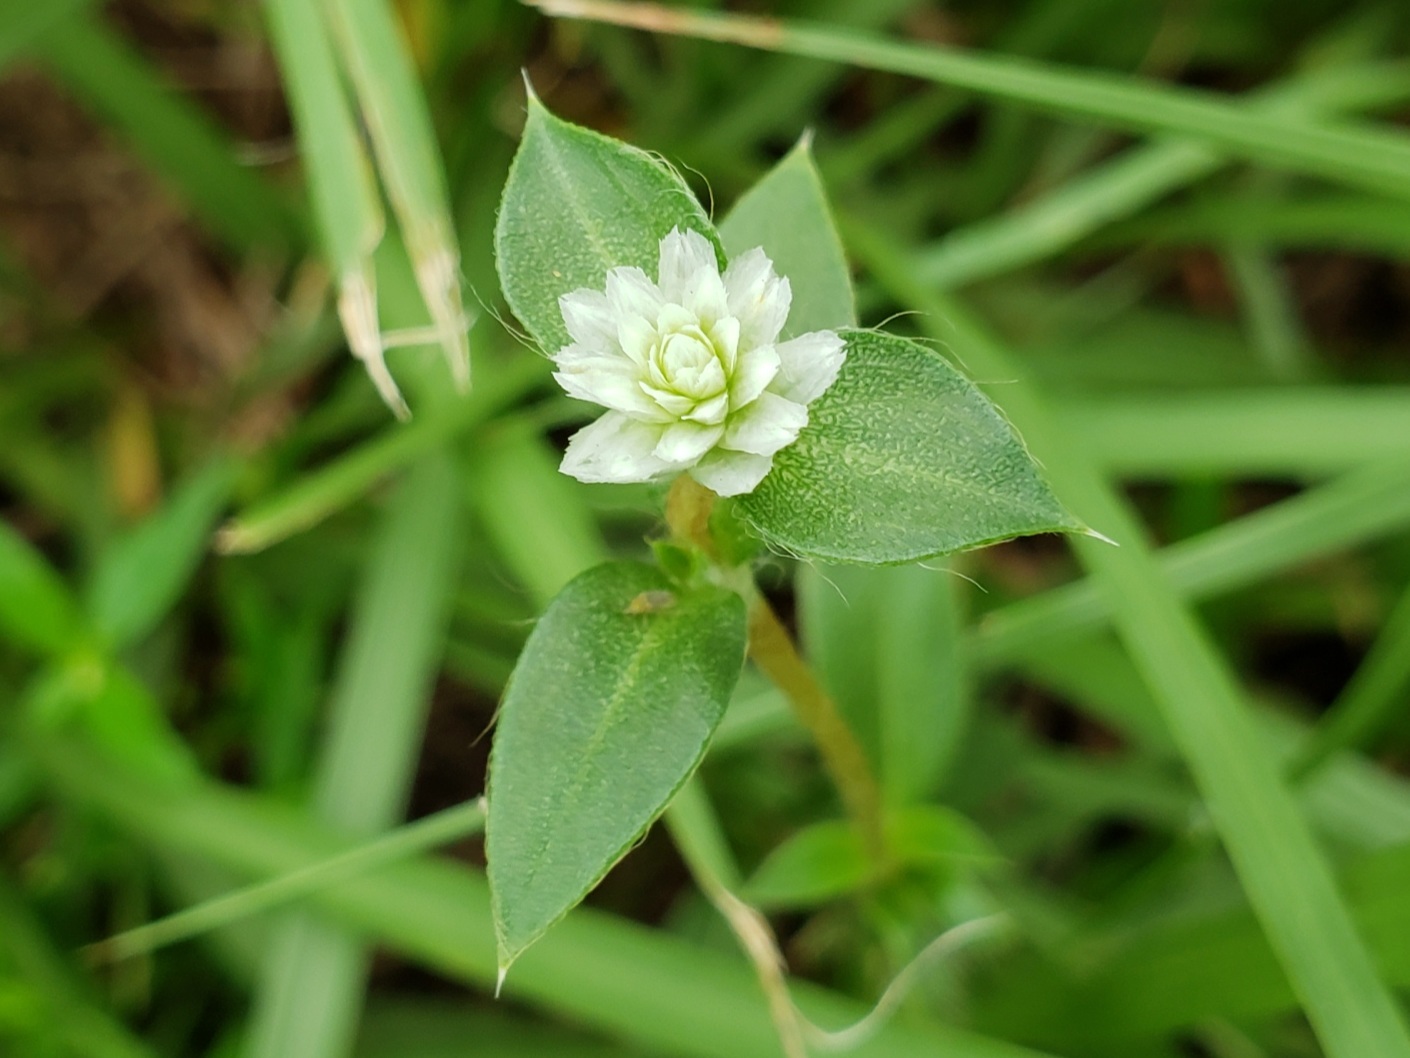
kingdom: Plantae
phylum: Tracheophyta
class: Magnoliopsida
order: Caryophyllales
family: Amaranthaceae
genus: Gomphrena
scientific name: Gomphrena serrata
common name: Arrasa con todo
